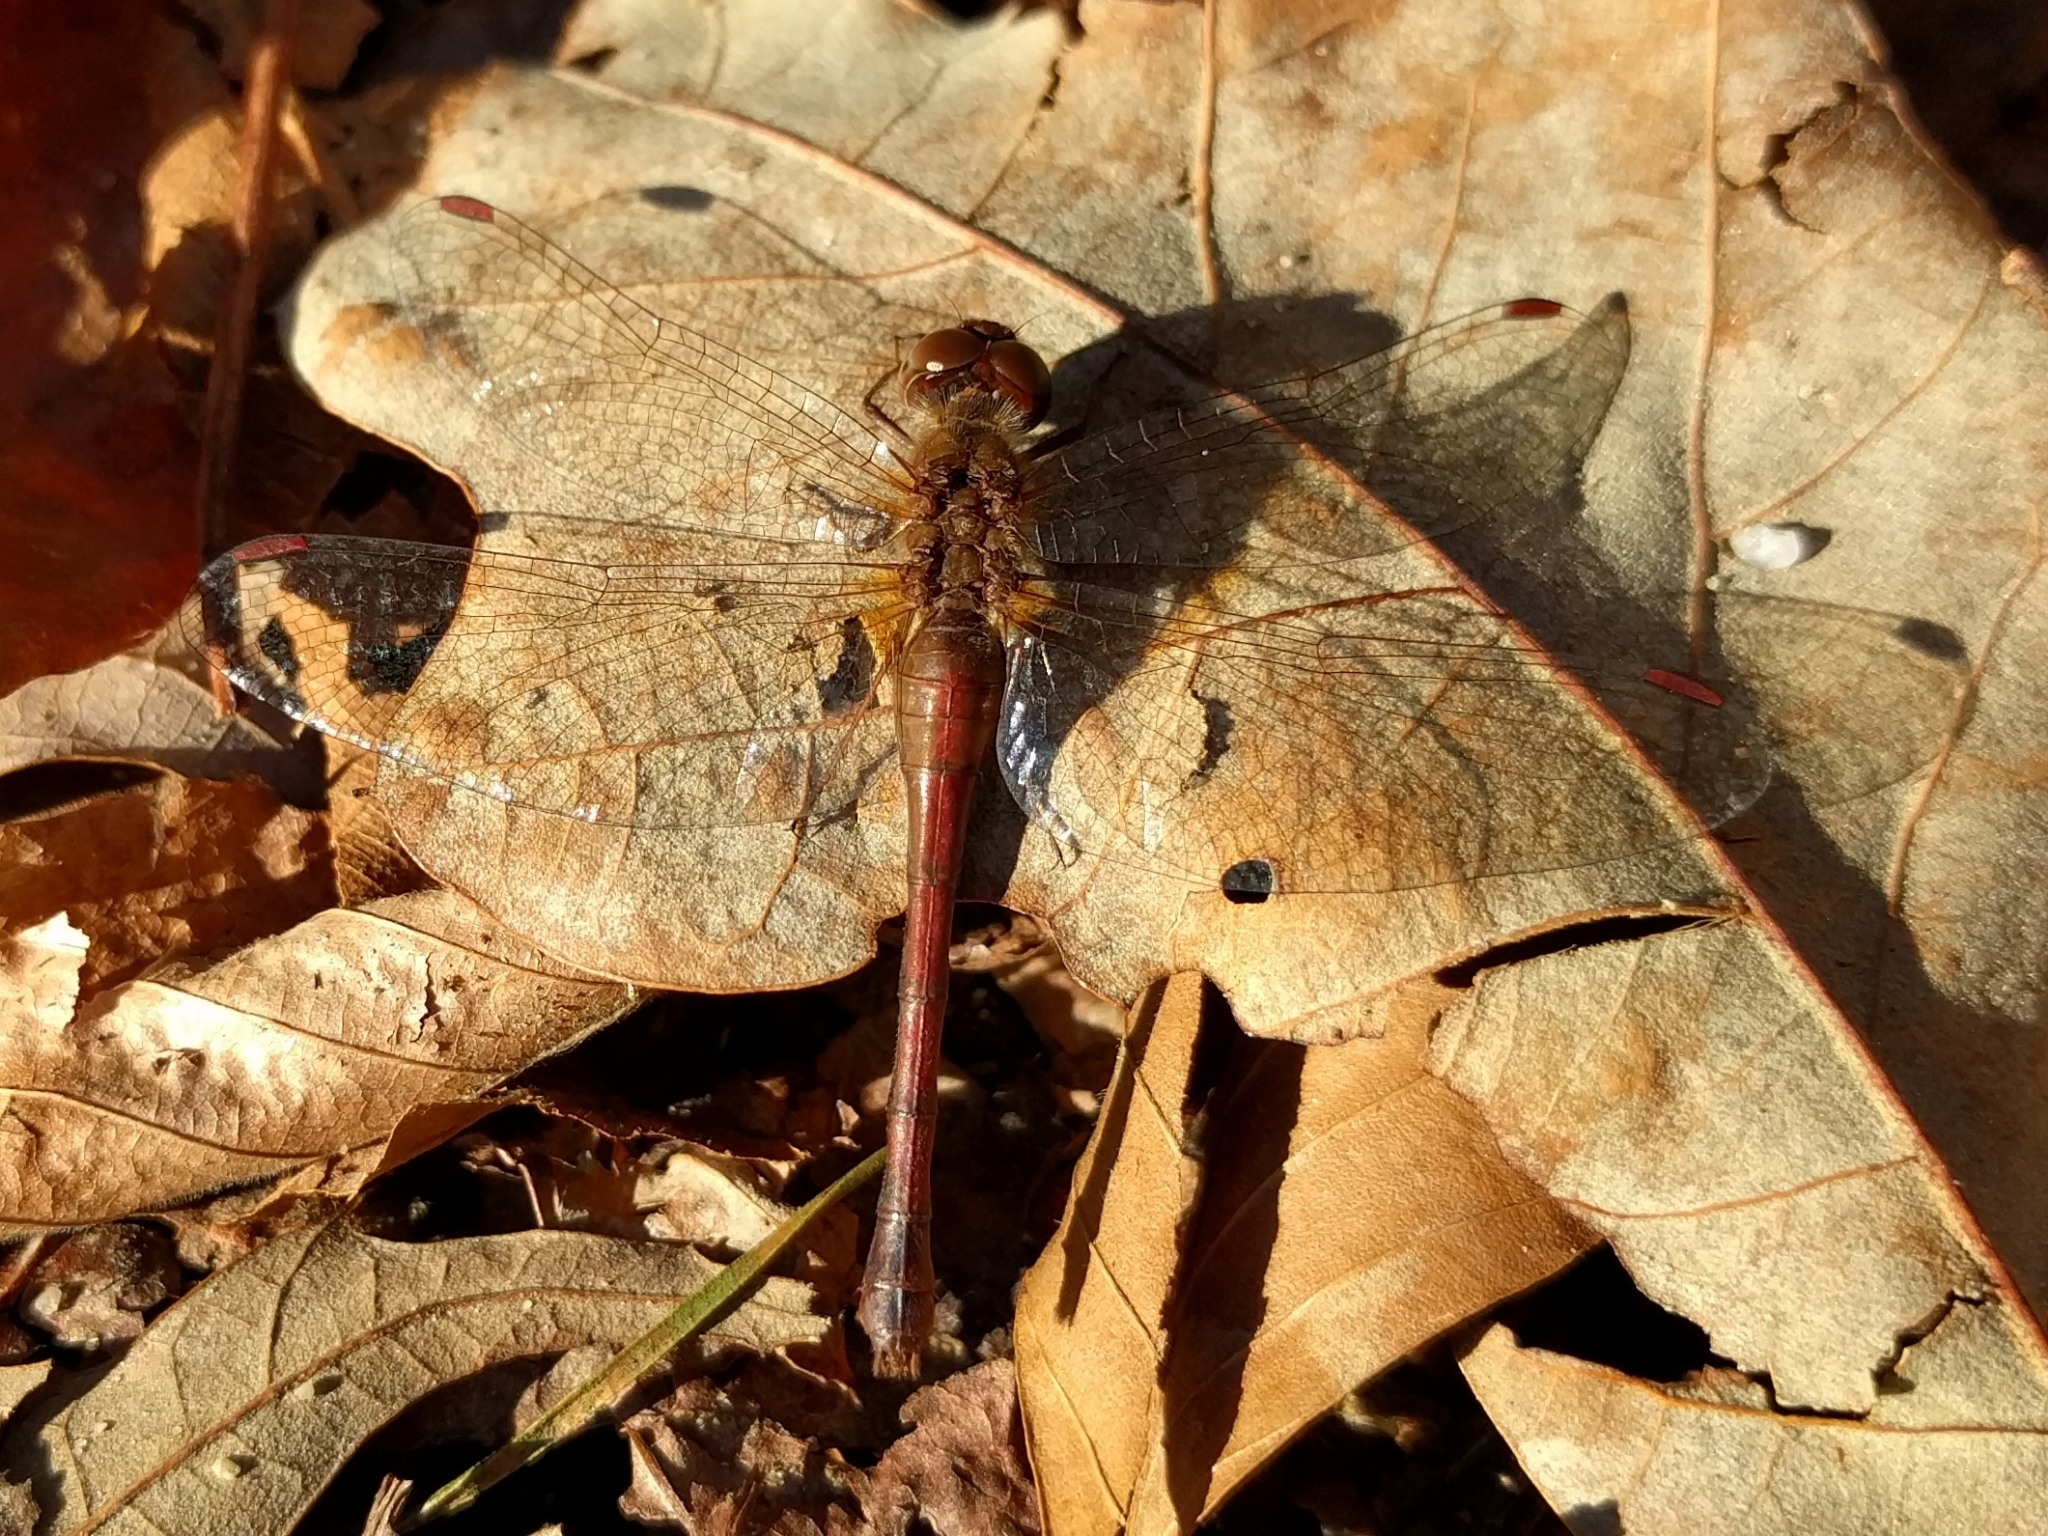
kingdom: Animalia
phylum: Arthropoda
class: Insecta
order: Odonata
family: Libellulidae
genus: Sympetrum
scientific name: Sympetrum vicinum
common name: Autumn meadowhawk
